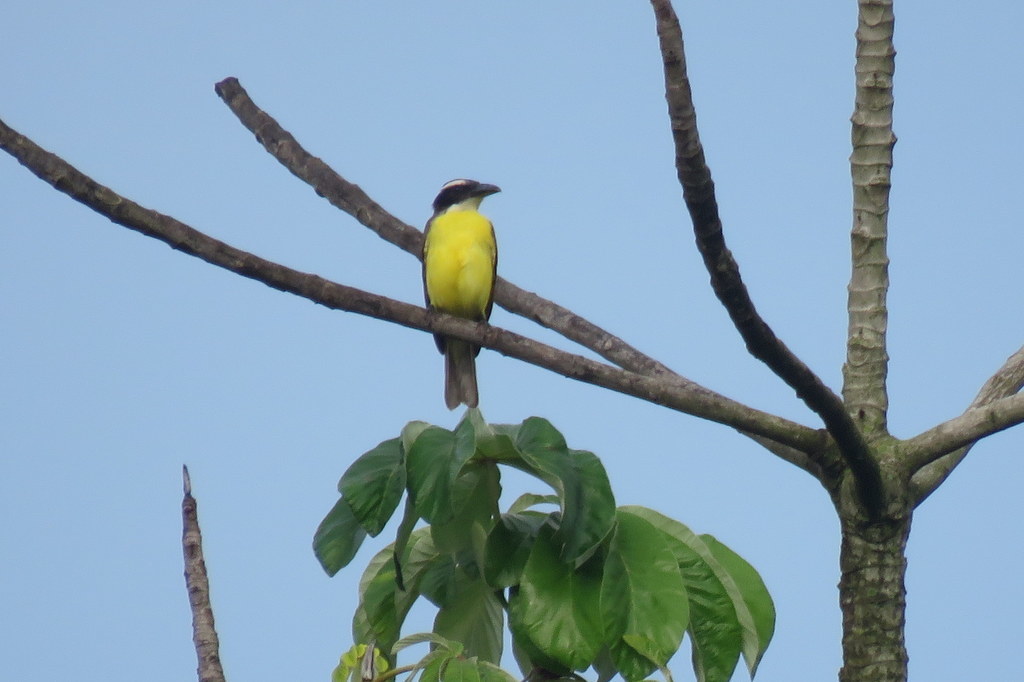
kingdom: Animalia
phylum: Chordata
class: Aves
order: Passeriformes
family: Tyrannidae
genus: Megarynchus
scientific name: Megarynchus pitangua
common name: Boat-billed flycatcher
